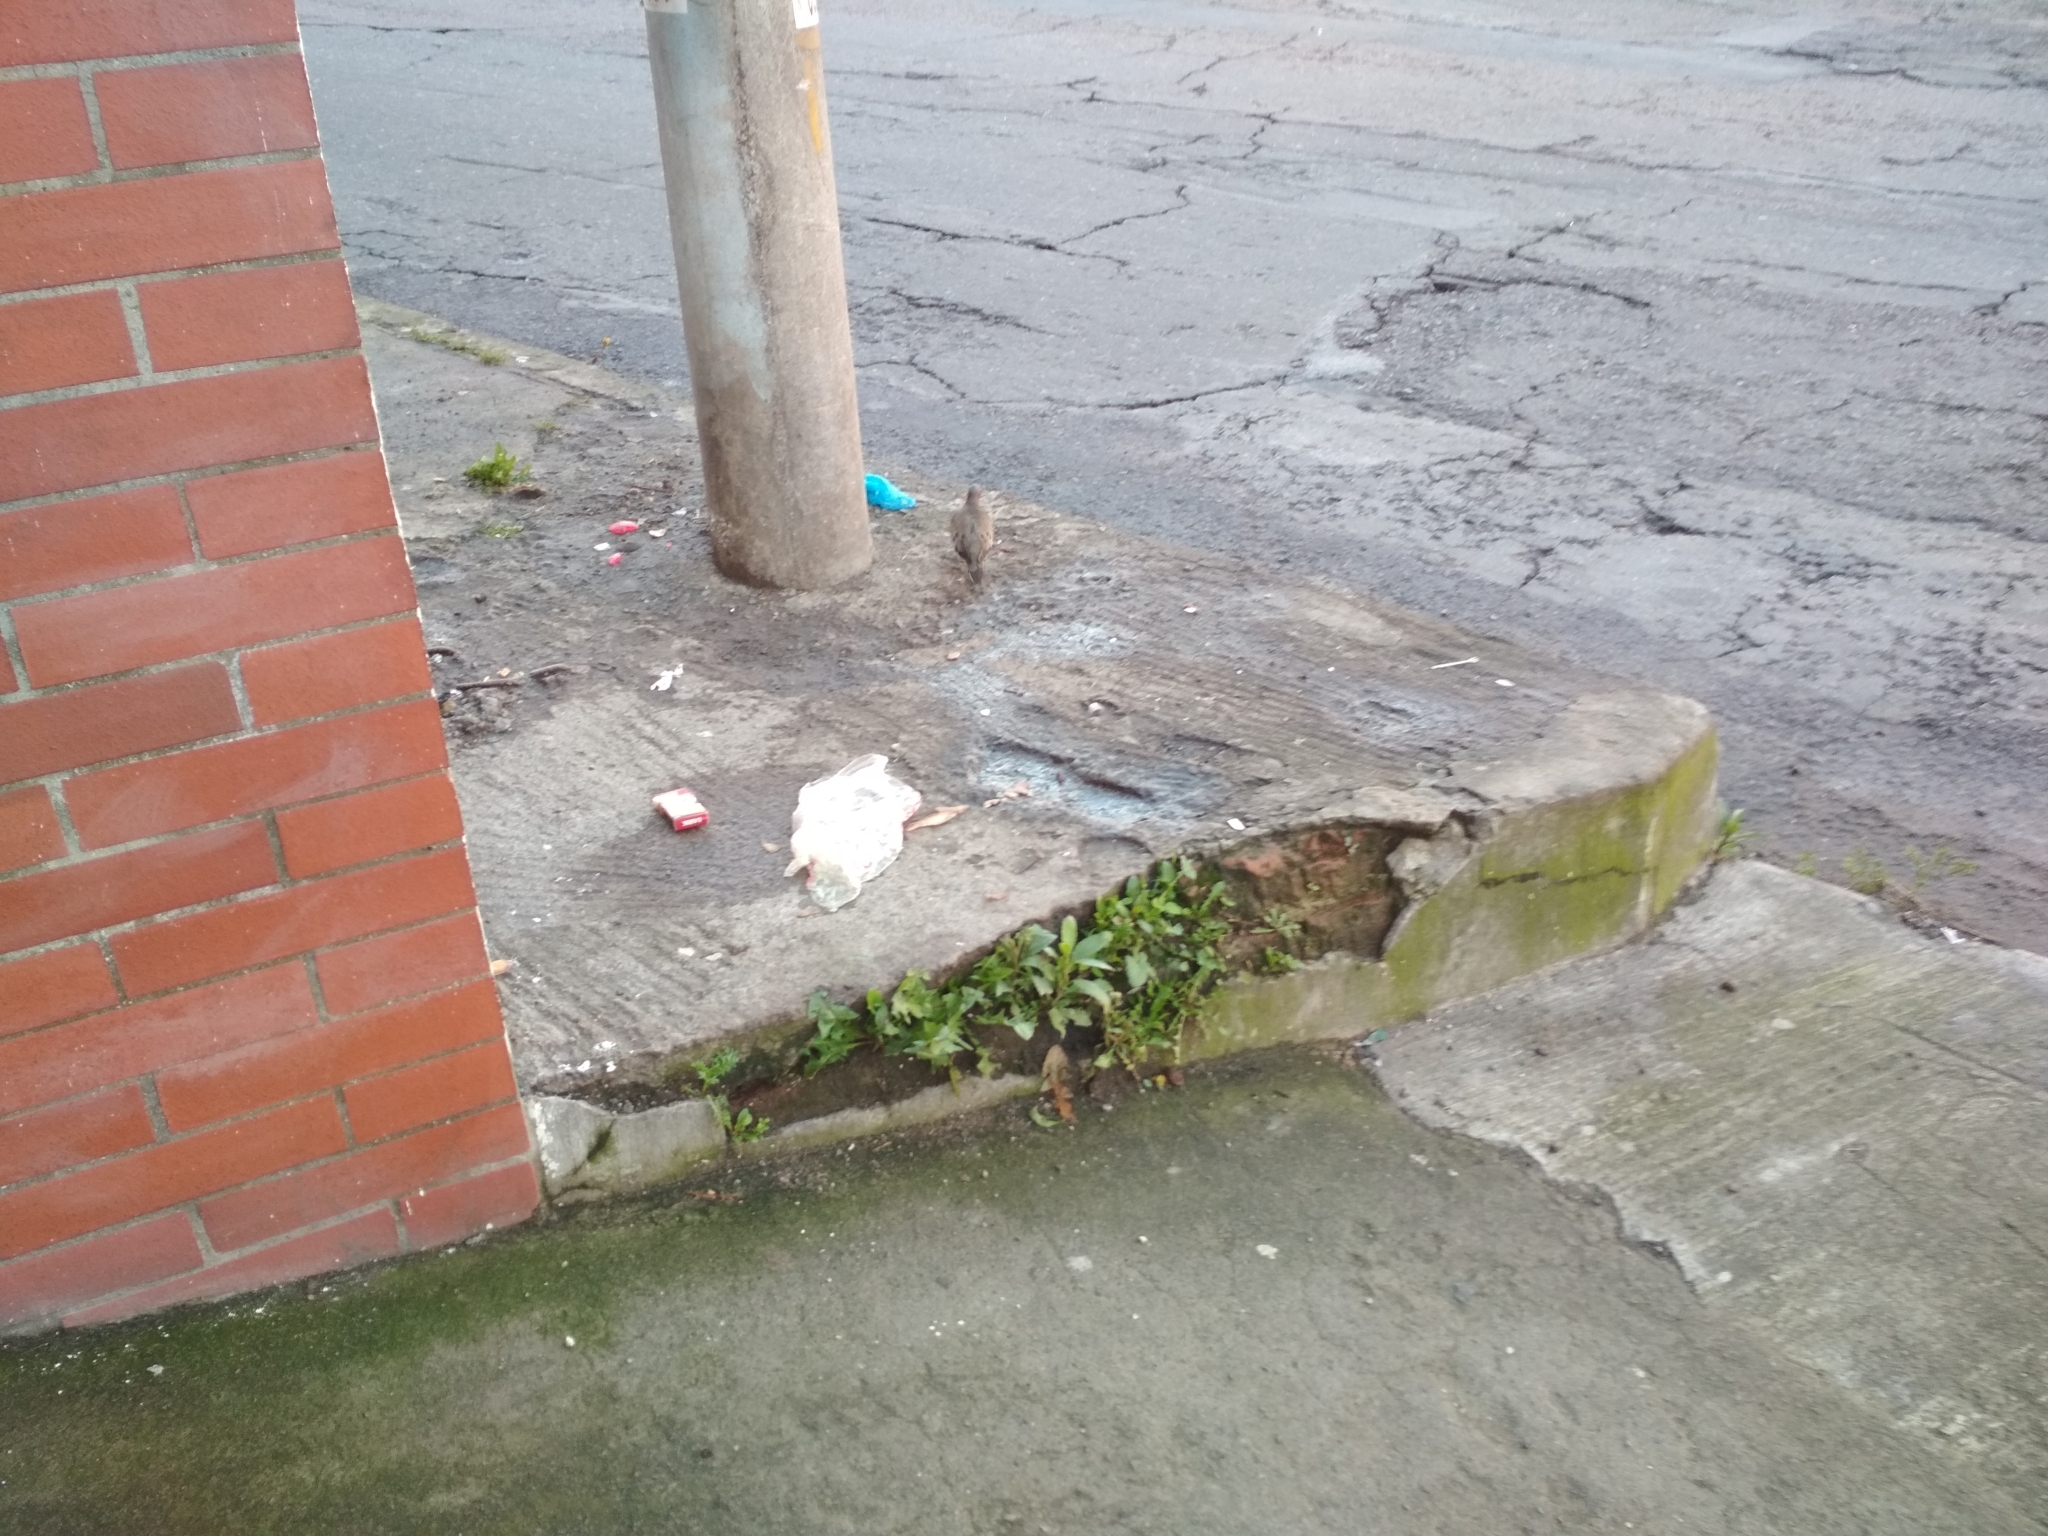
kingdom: Animalia
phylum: Chordata
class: Aves
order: Columbiformes
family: Columbidae
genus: Zenaida
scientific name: Zenaida auriculata
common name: Eared dove
